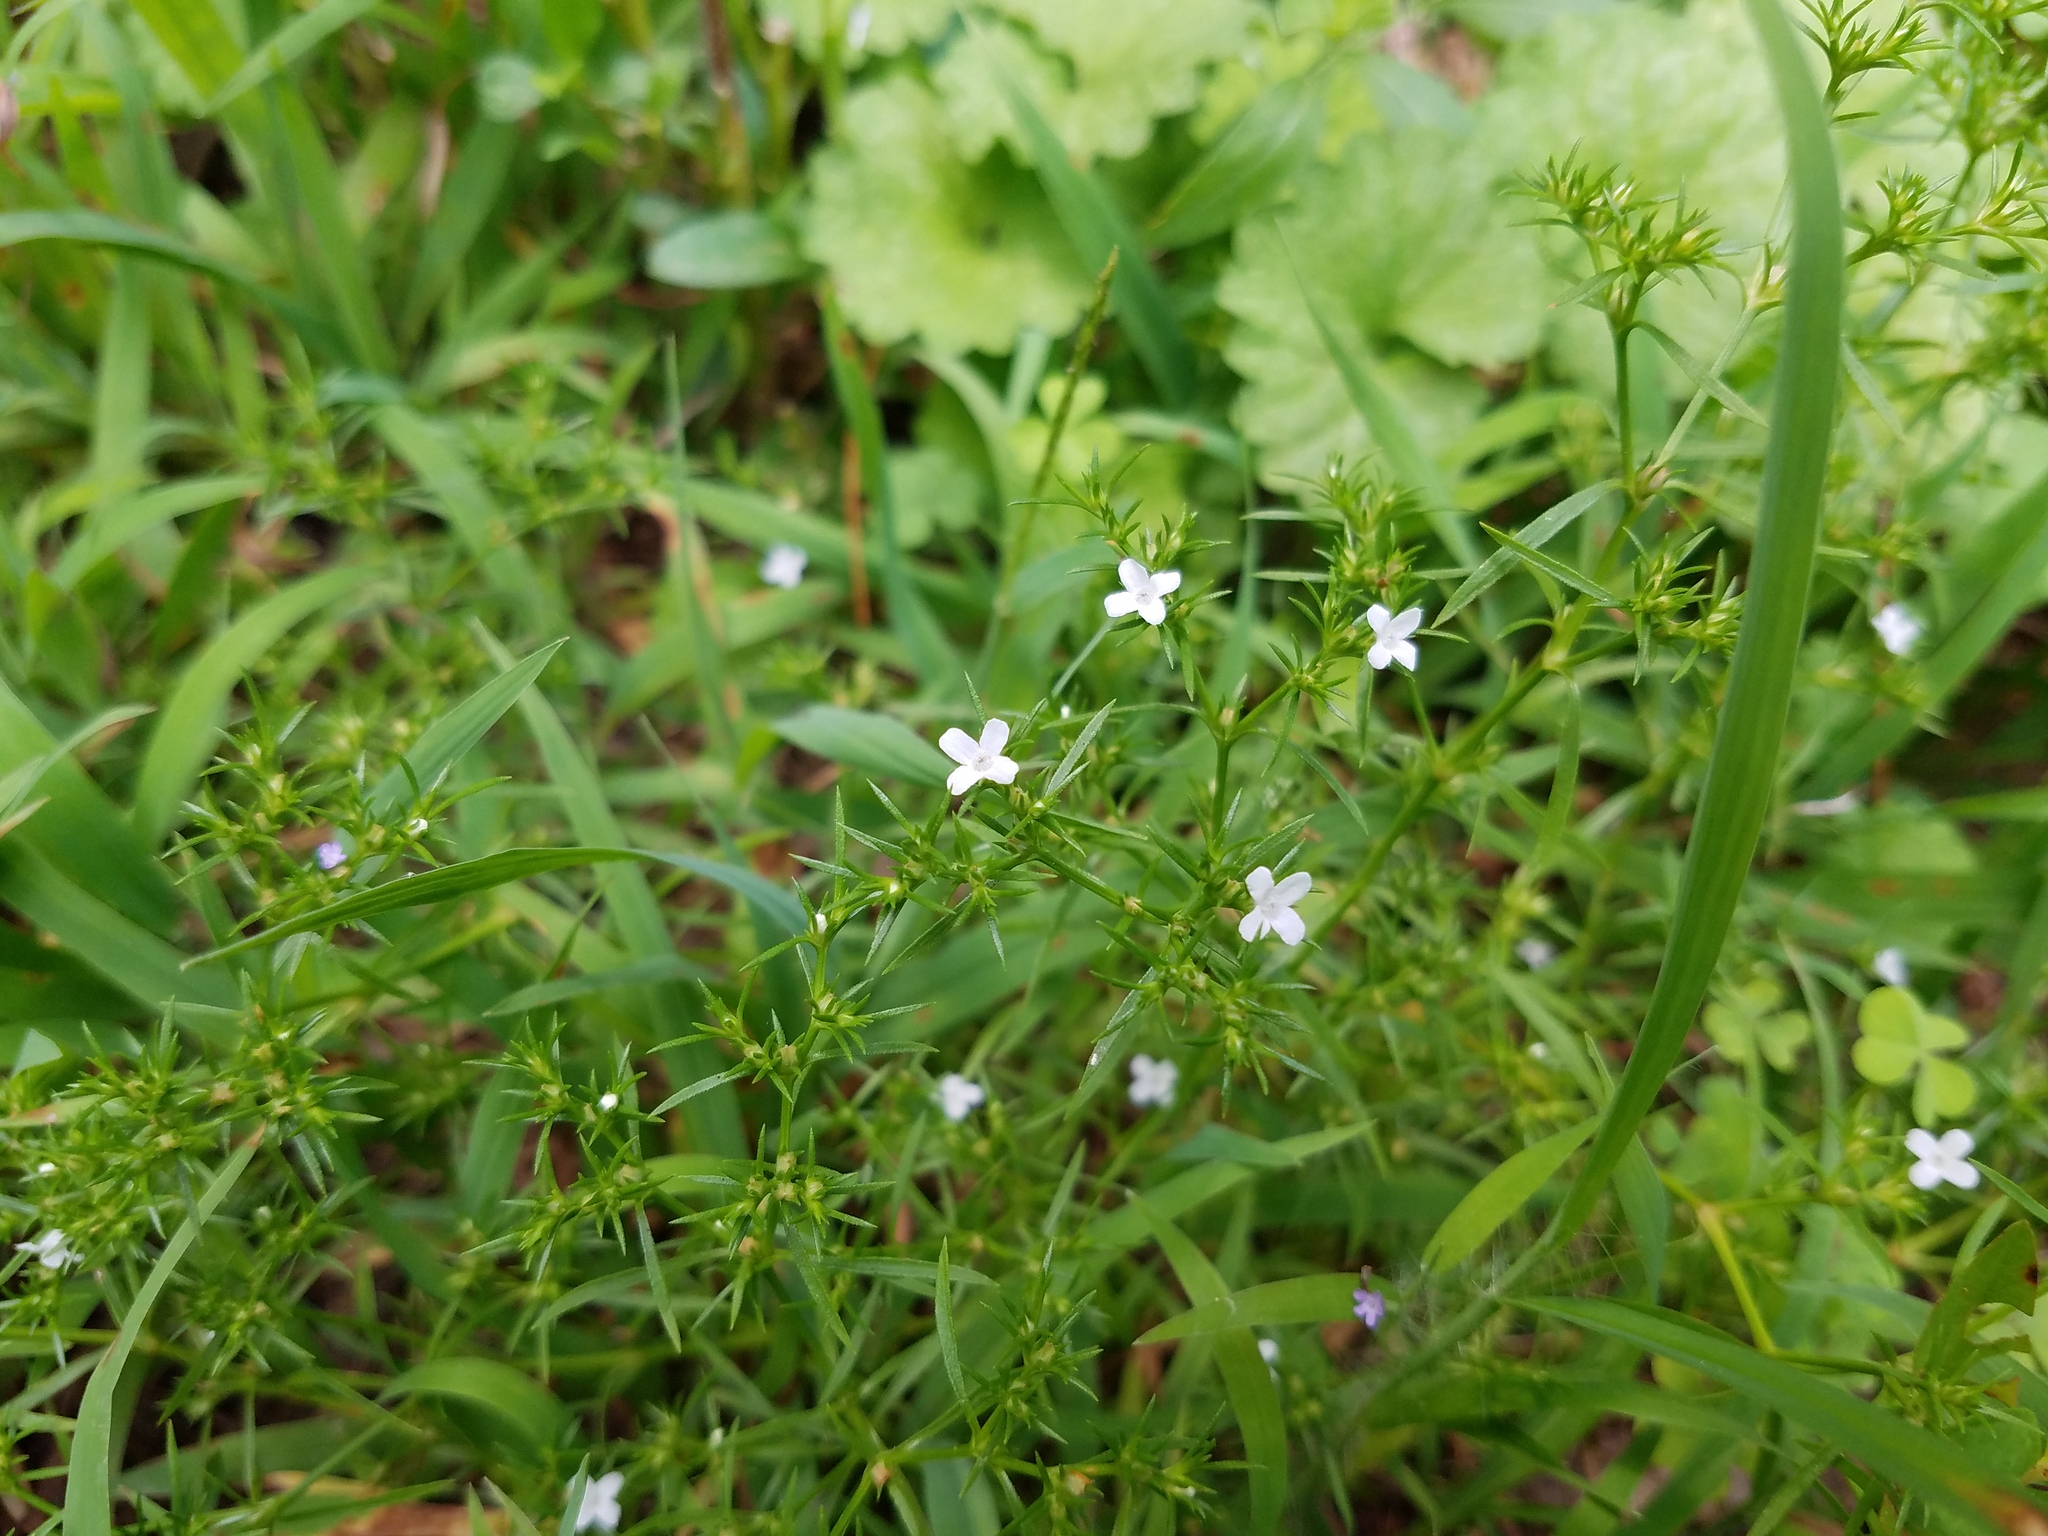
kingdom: Plantae
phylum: Tracheophyta
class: Magnoliopsida
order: Lamiales
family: Tetrachondraceae
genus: Polypremum
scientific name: Polypremum procumbens
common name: Juniper-leaf
